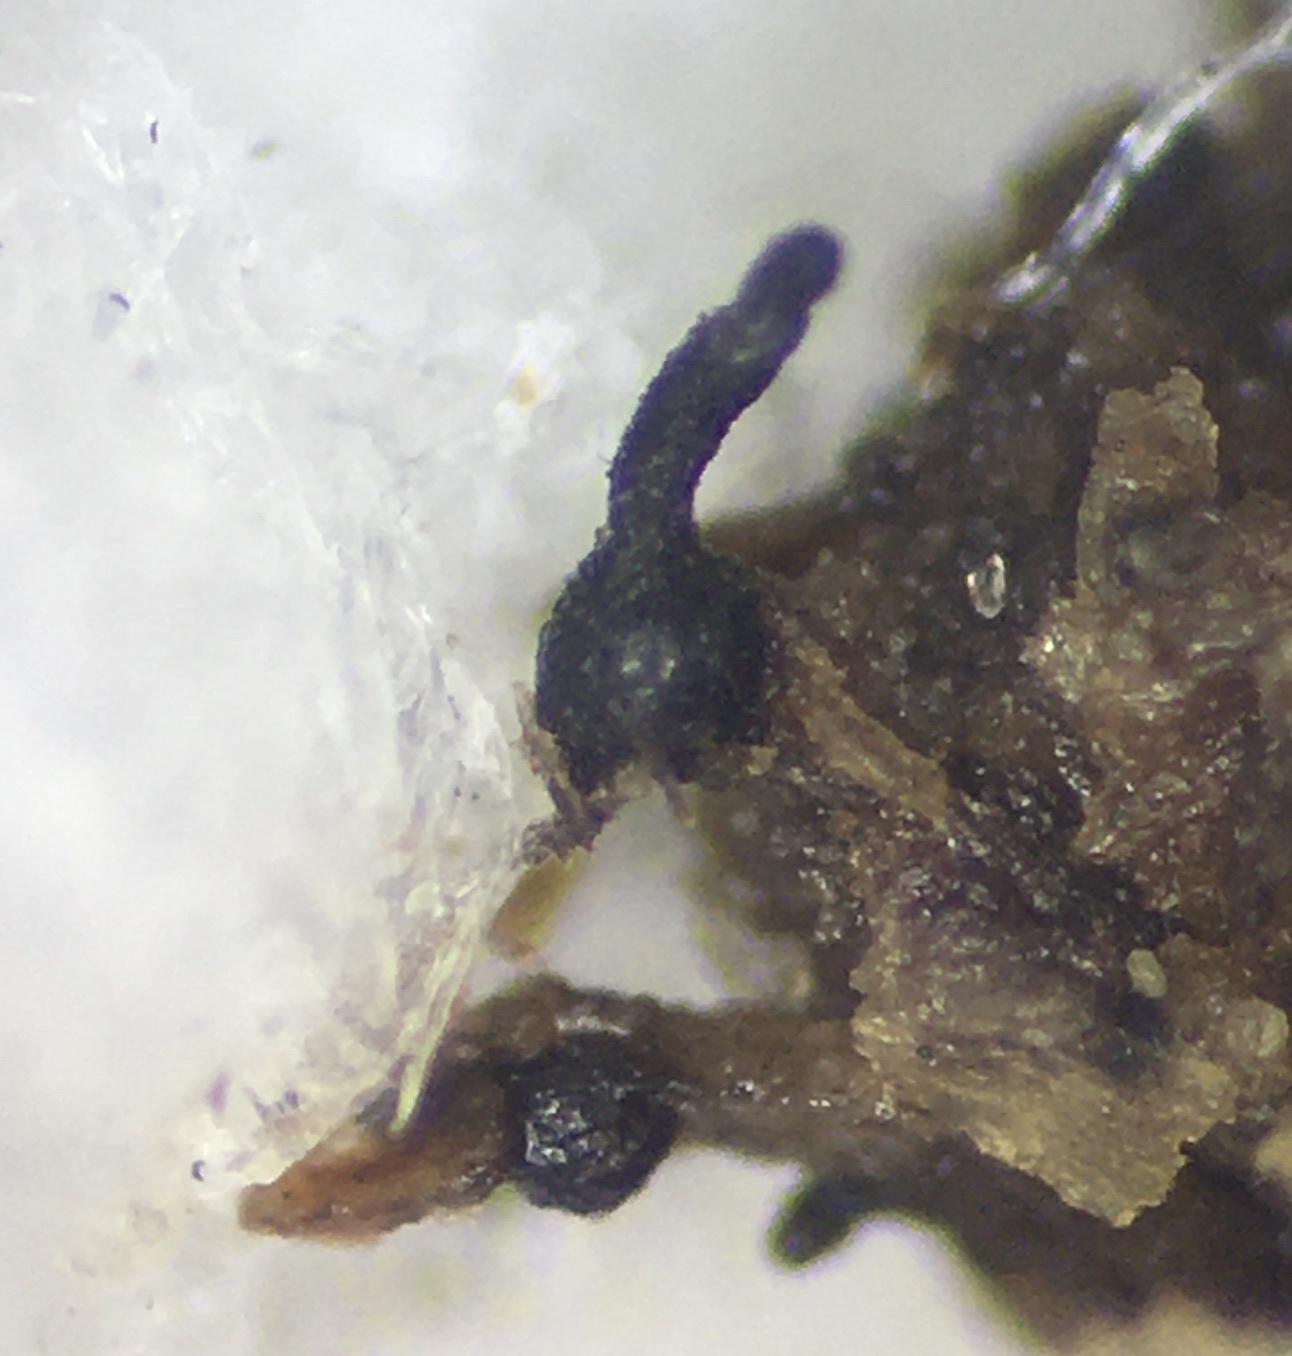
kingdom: Fungi
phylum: Ascomycota
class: Dothideomycetes
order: Pleosporales
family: Sporormiaceae
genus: Sporormiella
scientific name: Sporormiella muskokensis
